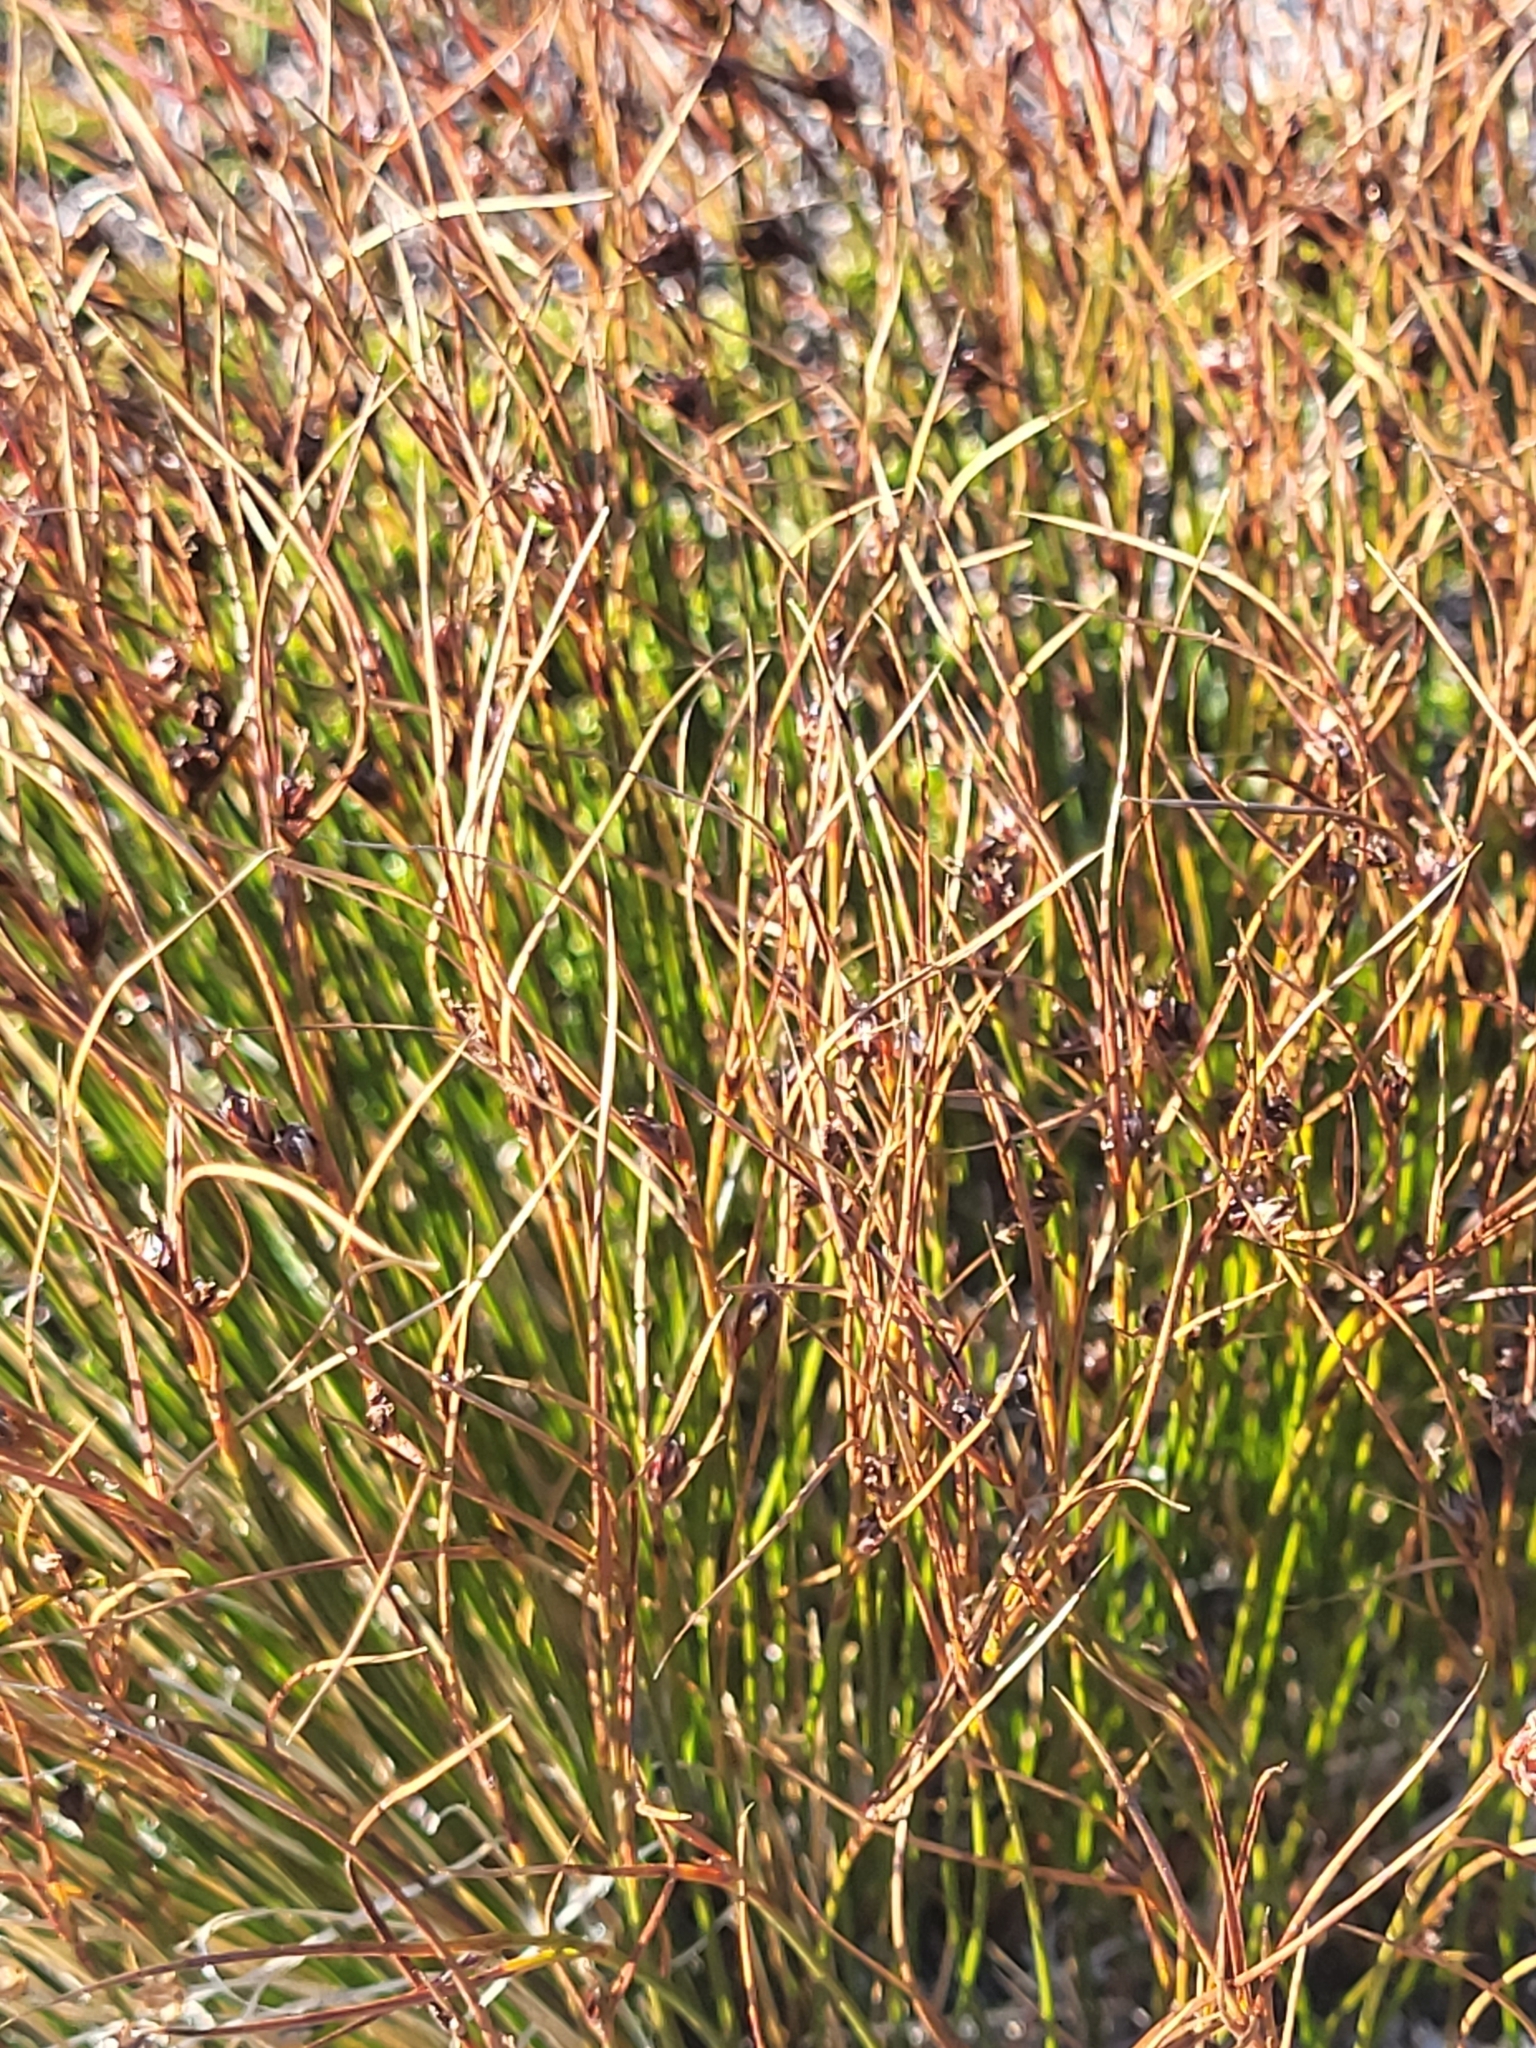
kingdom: Plantae
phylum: Tracheophyta
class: Liliopsida
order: Poales
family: Juncaceae
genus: Oreojuncus
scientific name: Oreojuncus trifidus
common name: Highland rush
